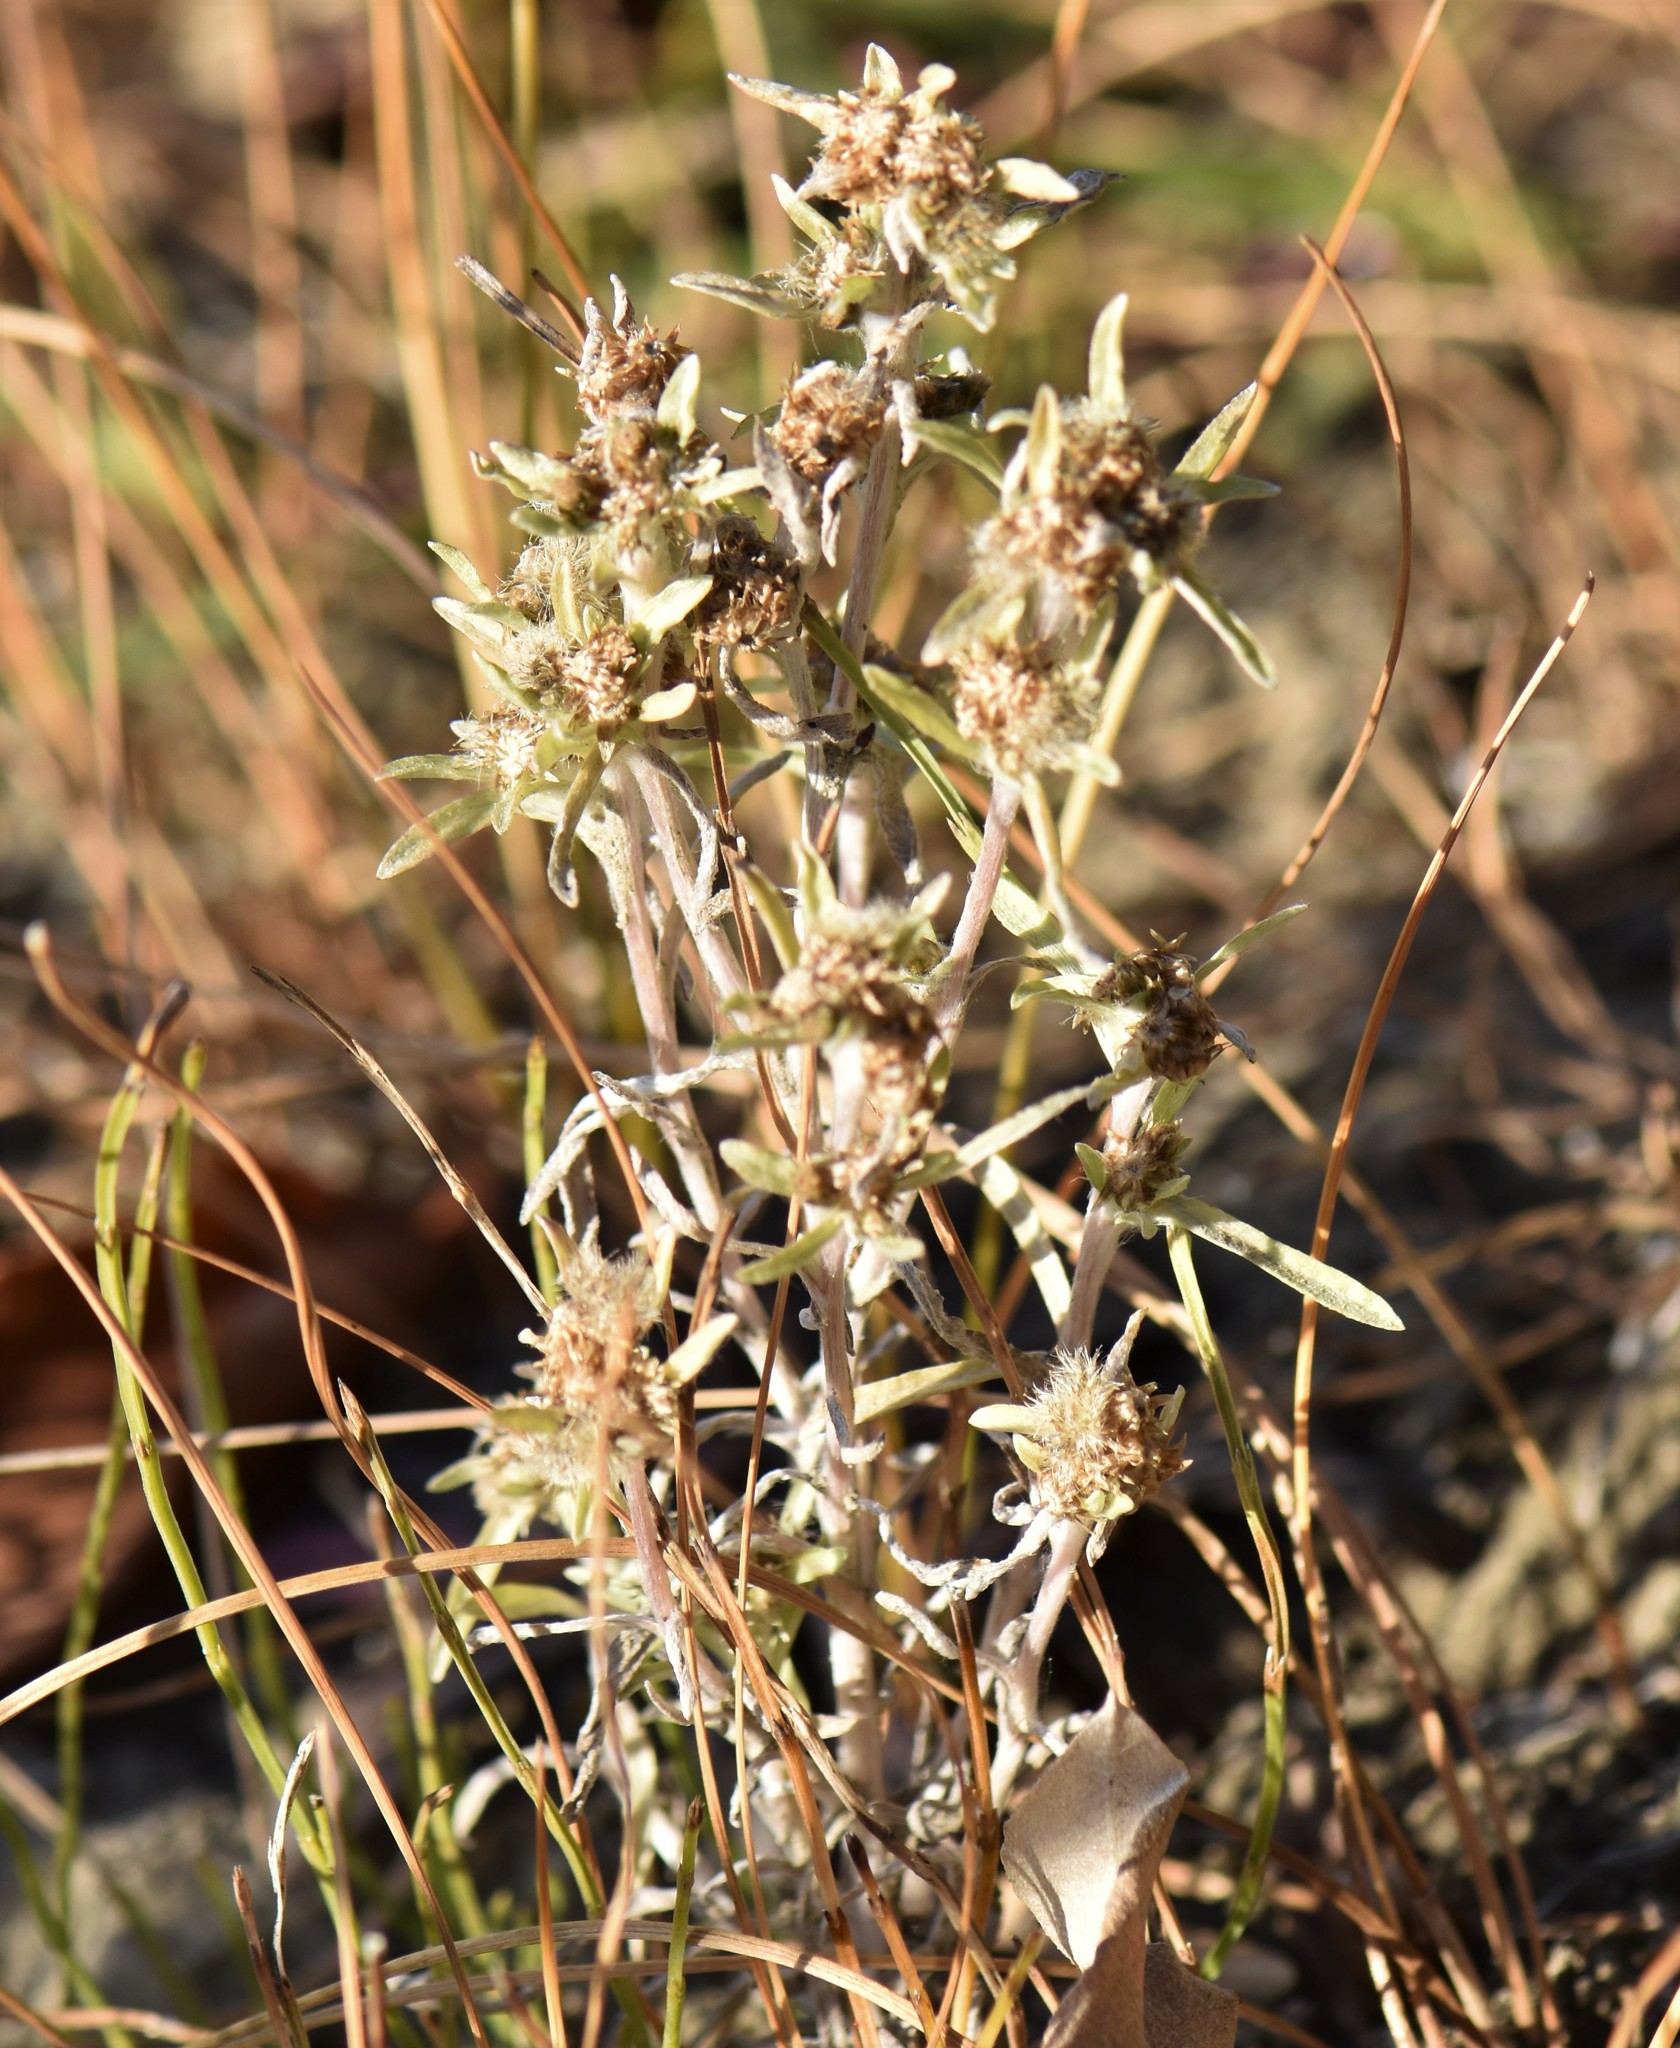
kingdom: Plantae
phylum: Tracheophyta
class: Magnoliopsida
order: Asterales
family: Asteraceae
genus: Gnaphalium
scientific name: Gnaphalium uliginosum
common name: Marsh cudweed
